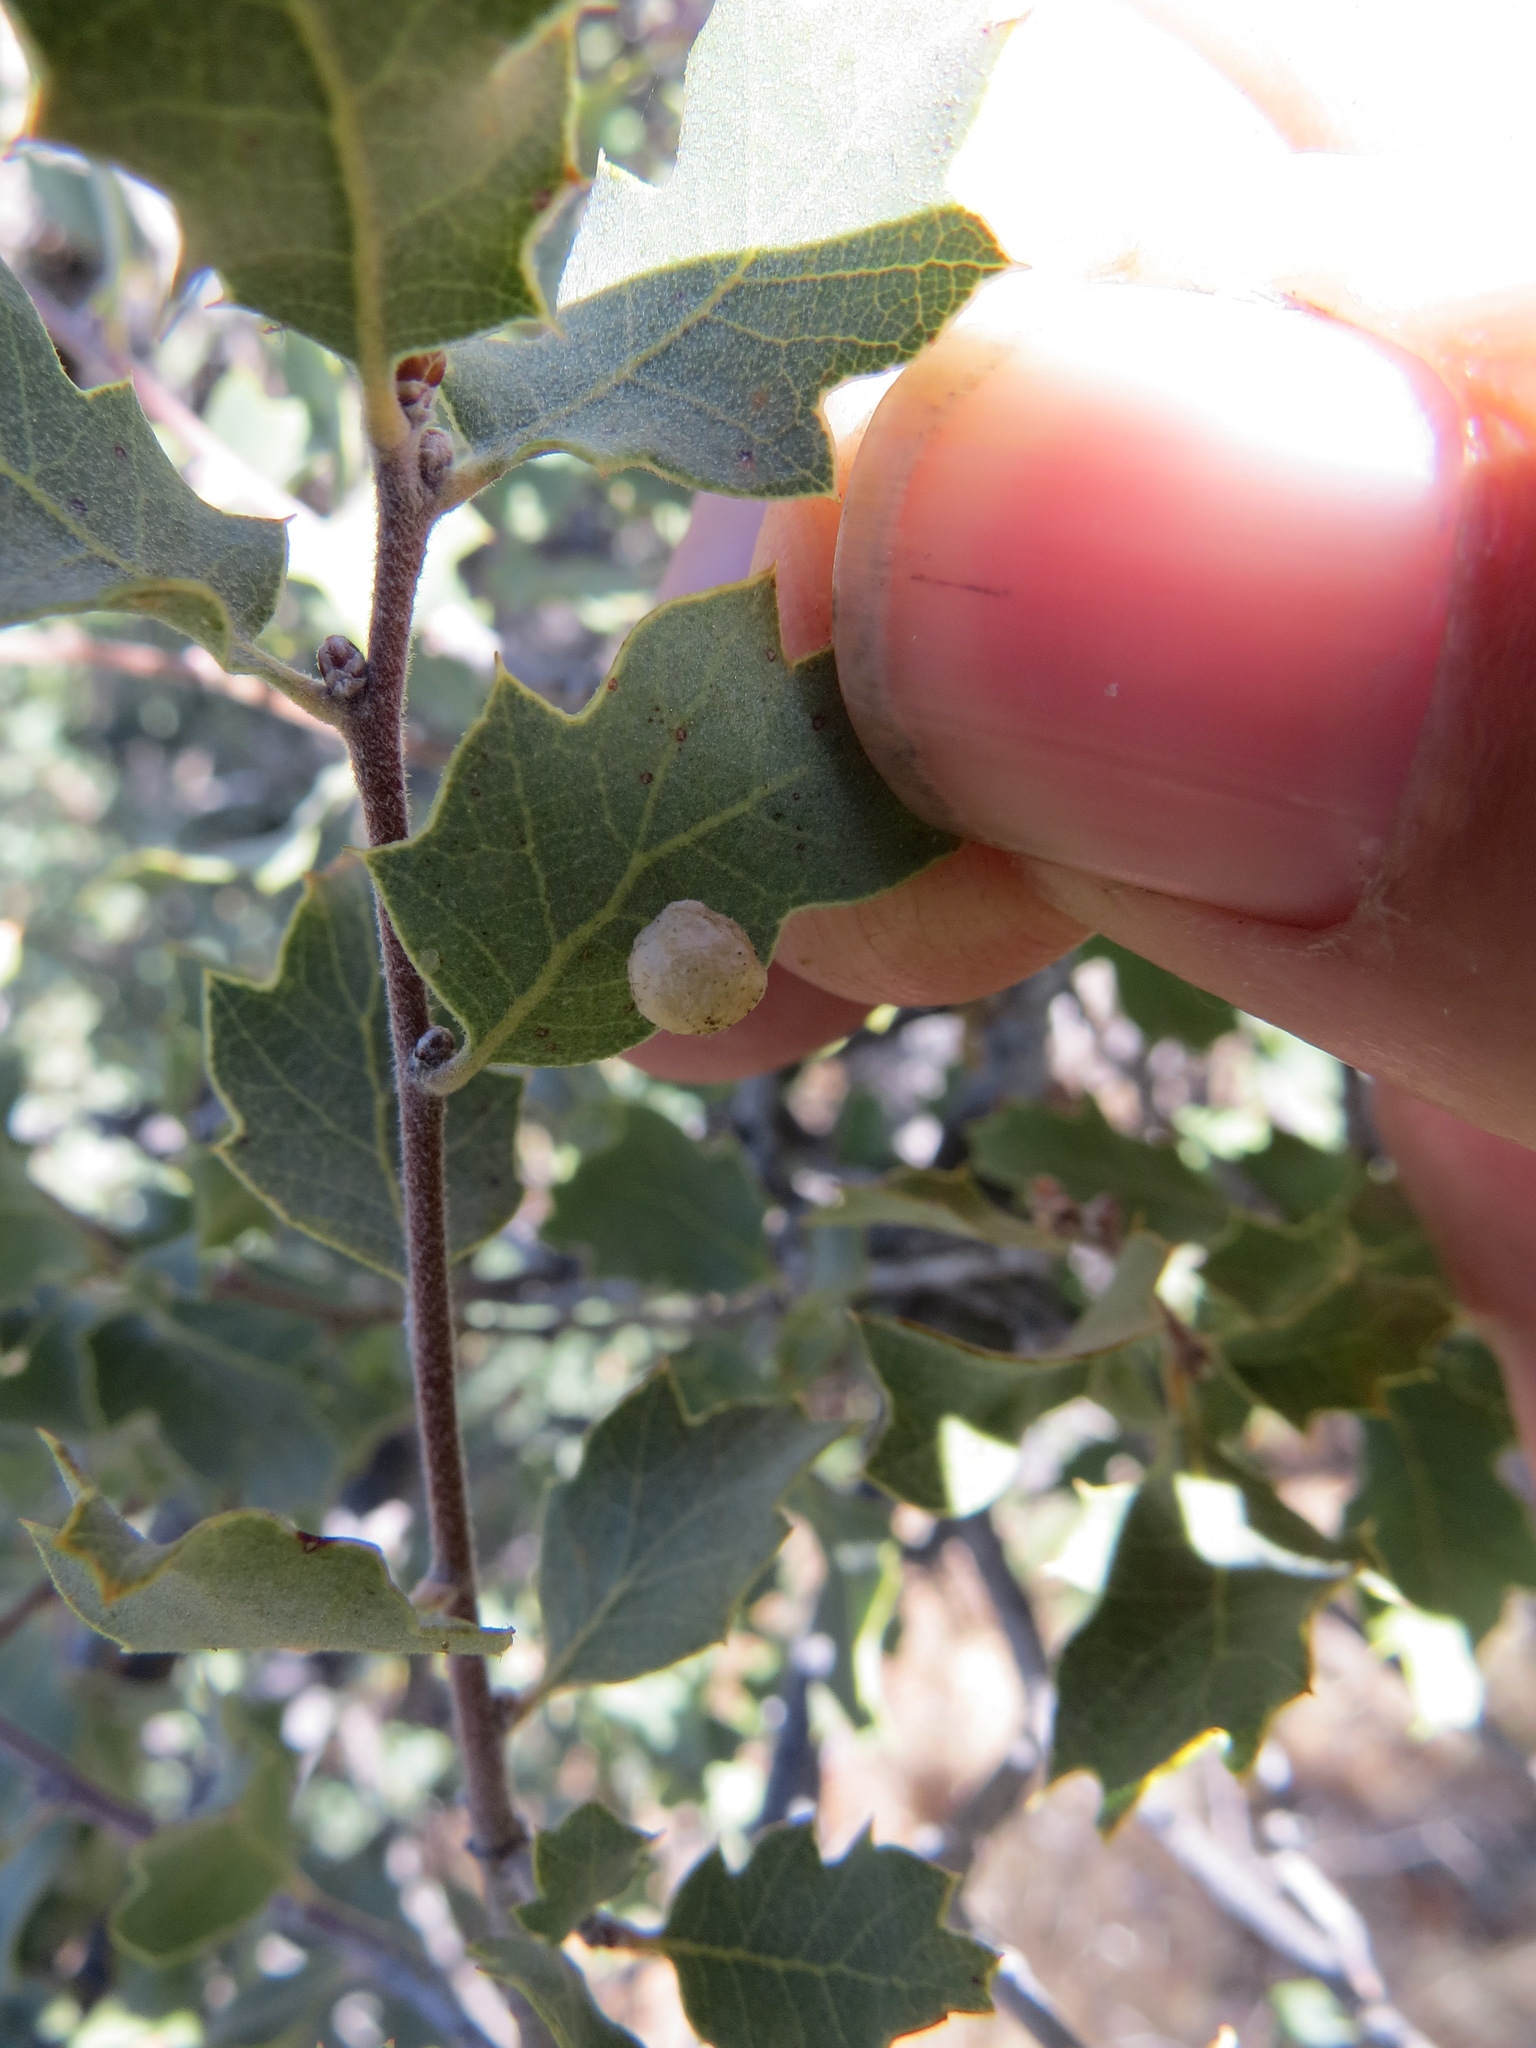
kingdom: Animalia
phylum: Arthropoda
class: Insecta
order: Hymenoptera
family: Cynipidae
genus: Andricus
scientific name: Andricus
